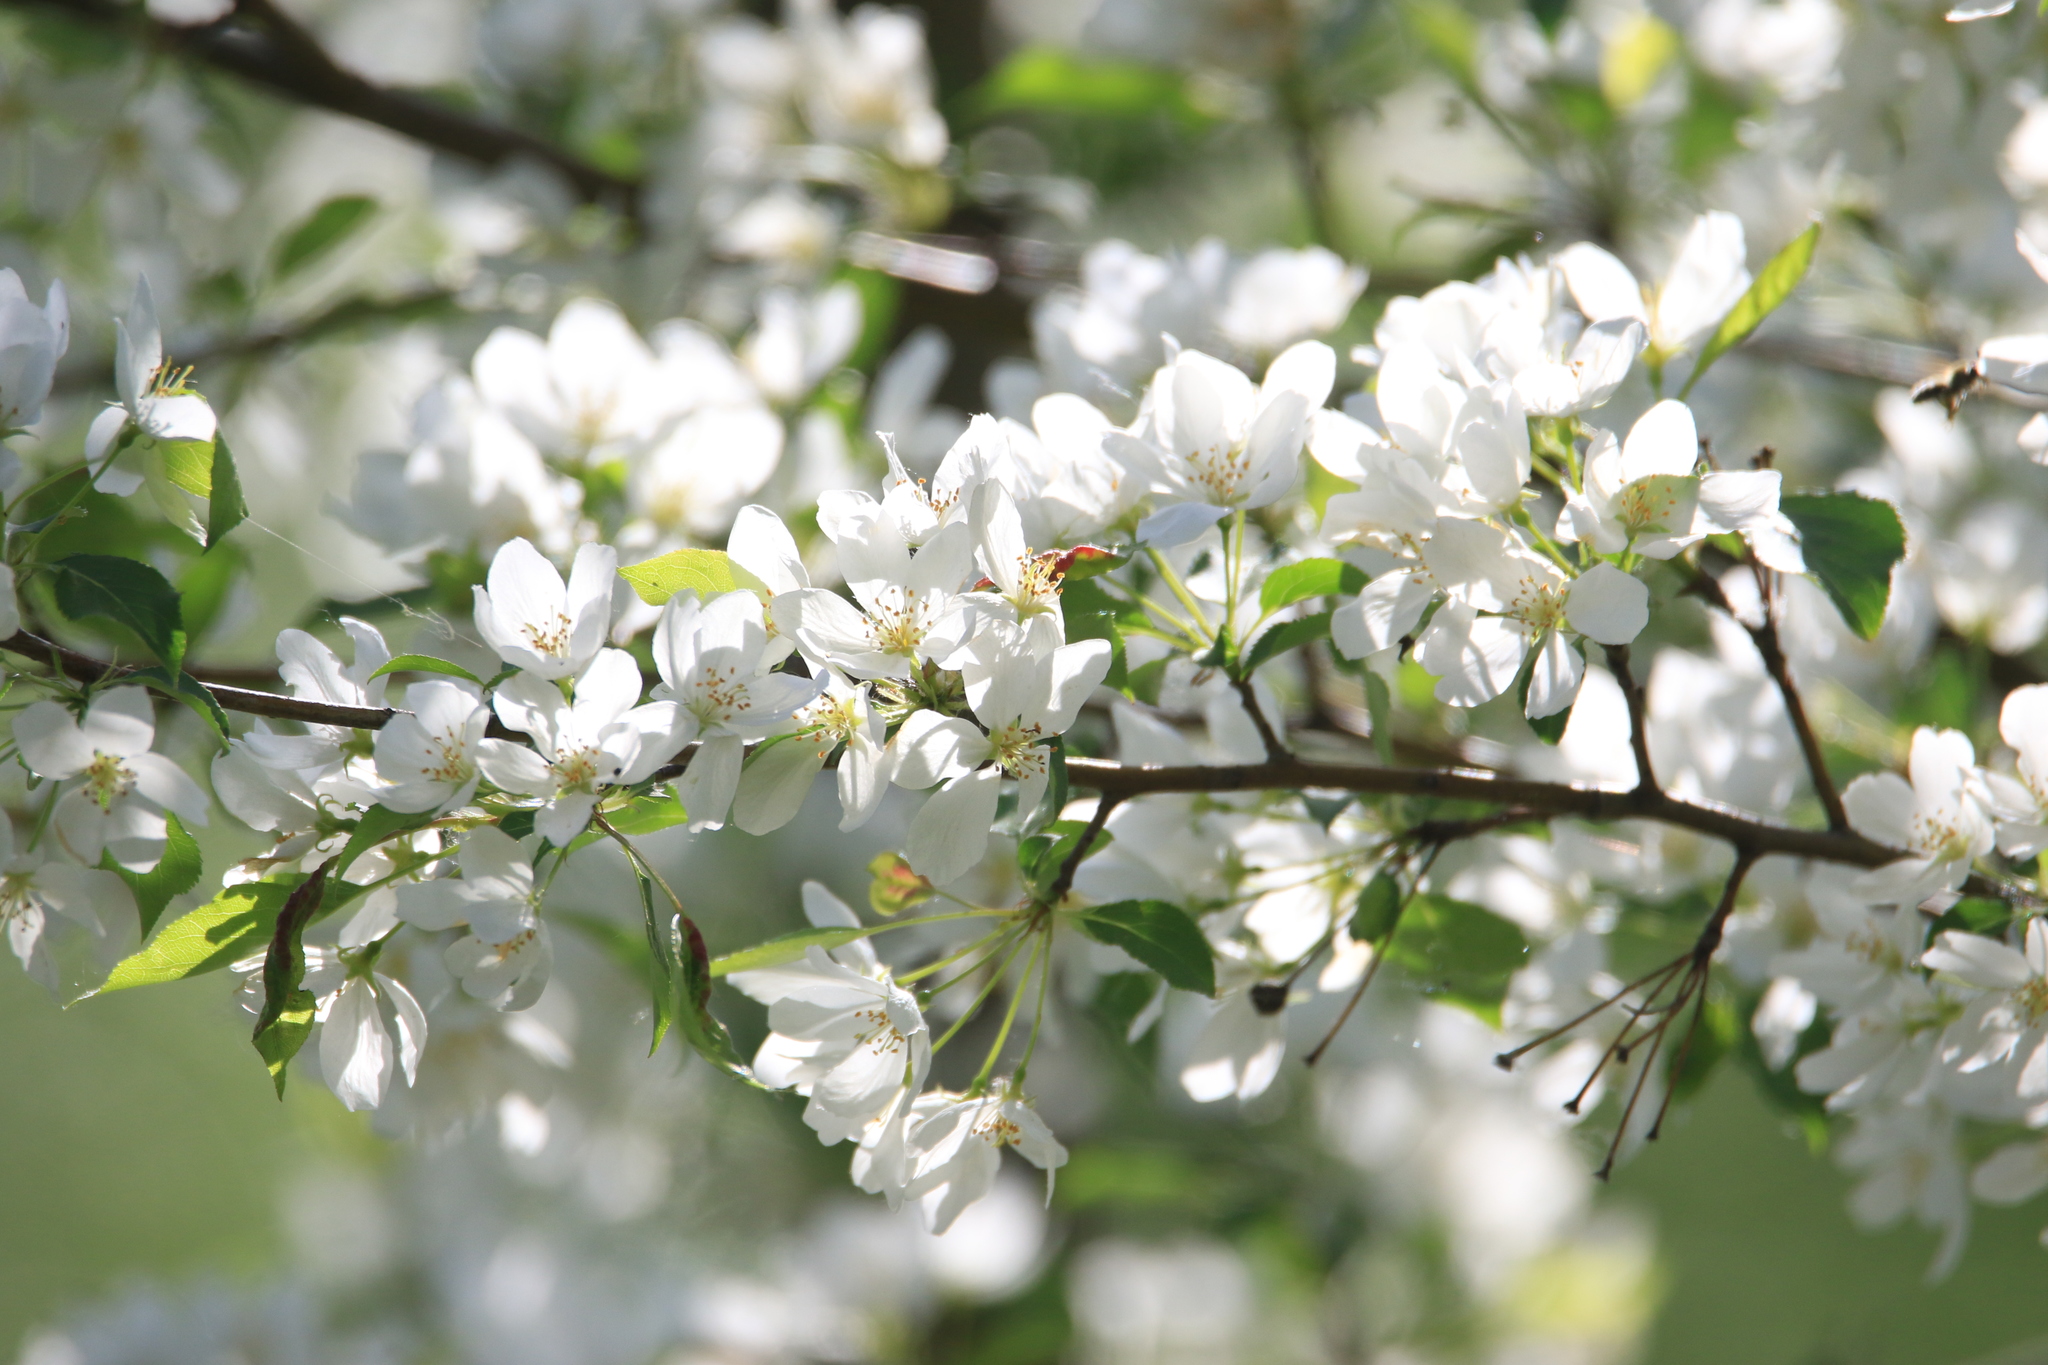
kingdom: Plantae
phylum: Tracheophyta
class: Magnoliopsida
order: Rosales
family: Rosaceae
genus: Malus
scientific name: Malus baccata
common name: Siberian crab
